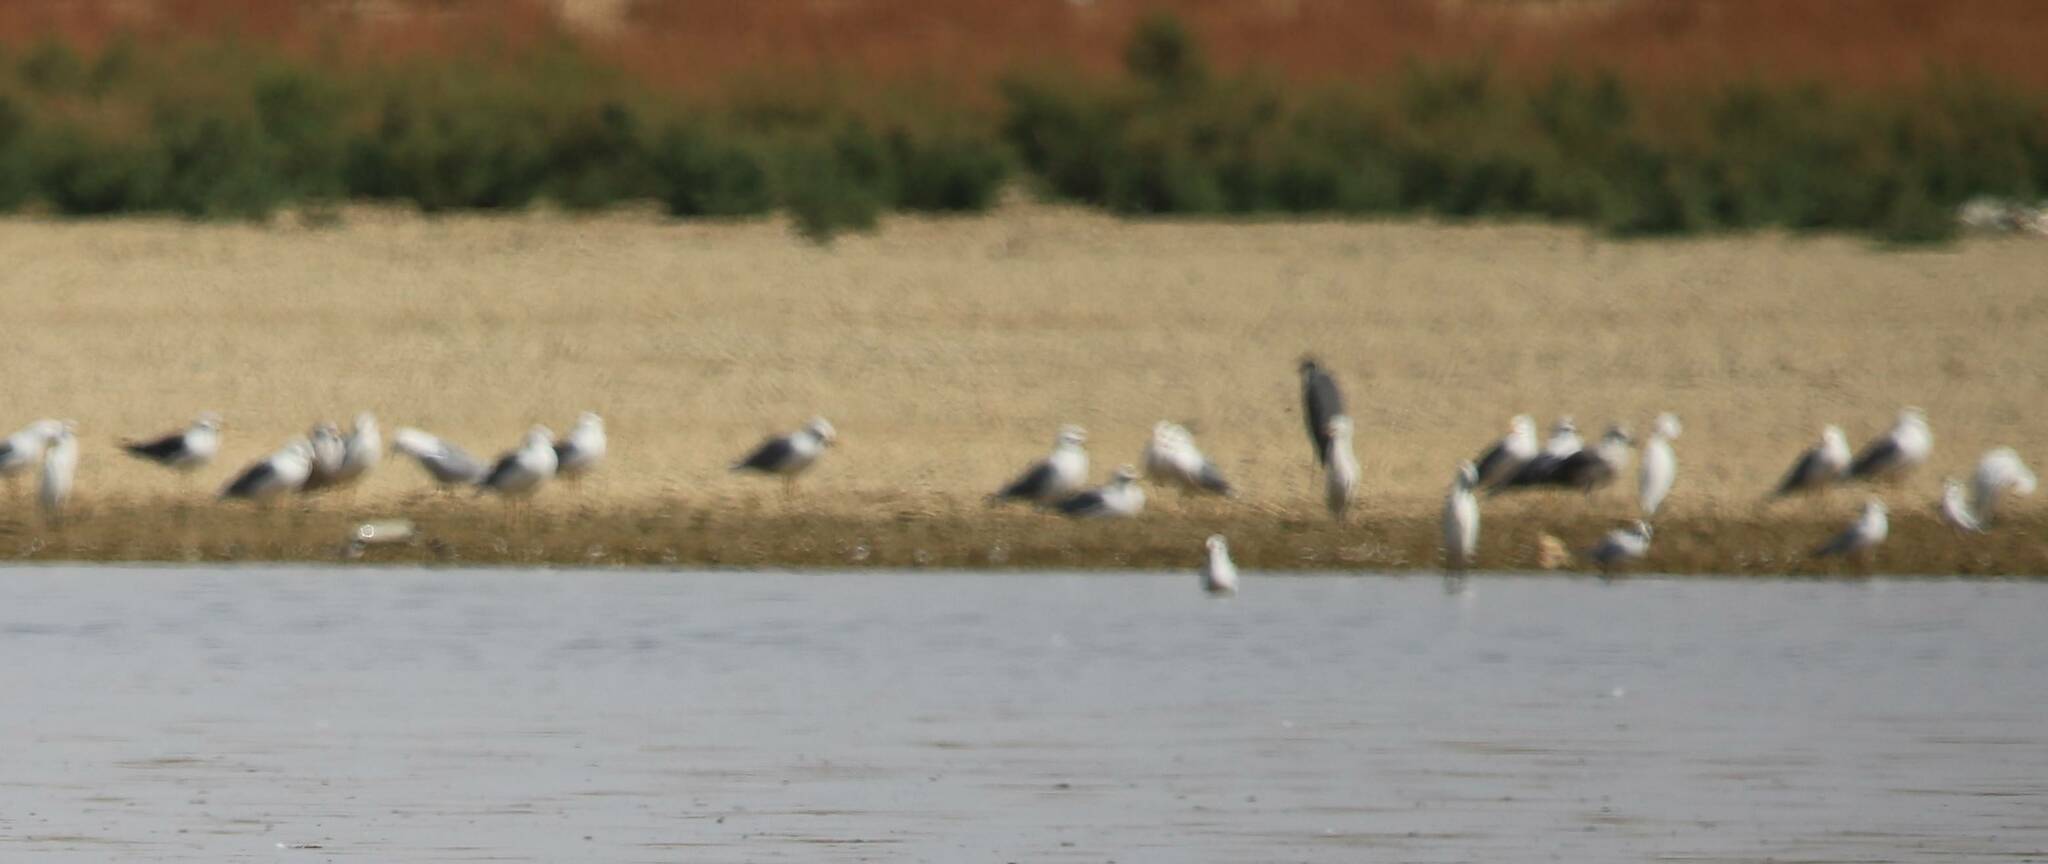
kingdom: Animalia
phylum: Chordata
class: Aves
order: Pelecaniformes
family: Ardeidae
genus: Ardea
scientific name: Ardea cinerea
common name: Grey heron
